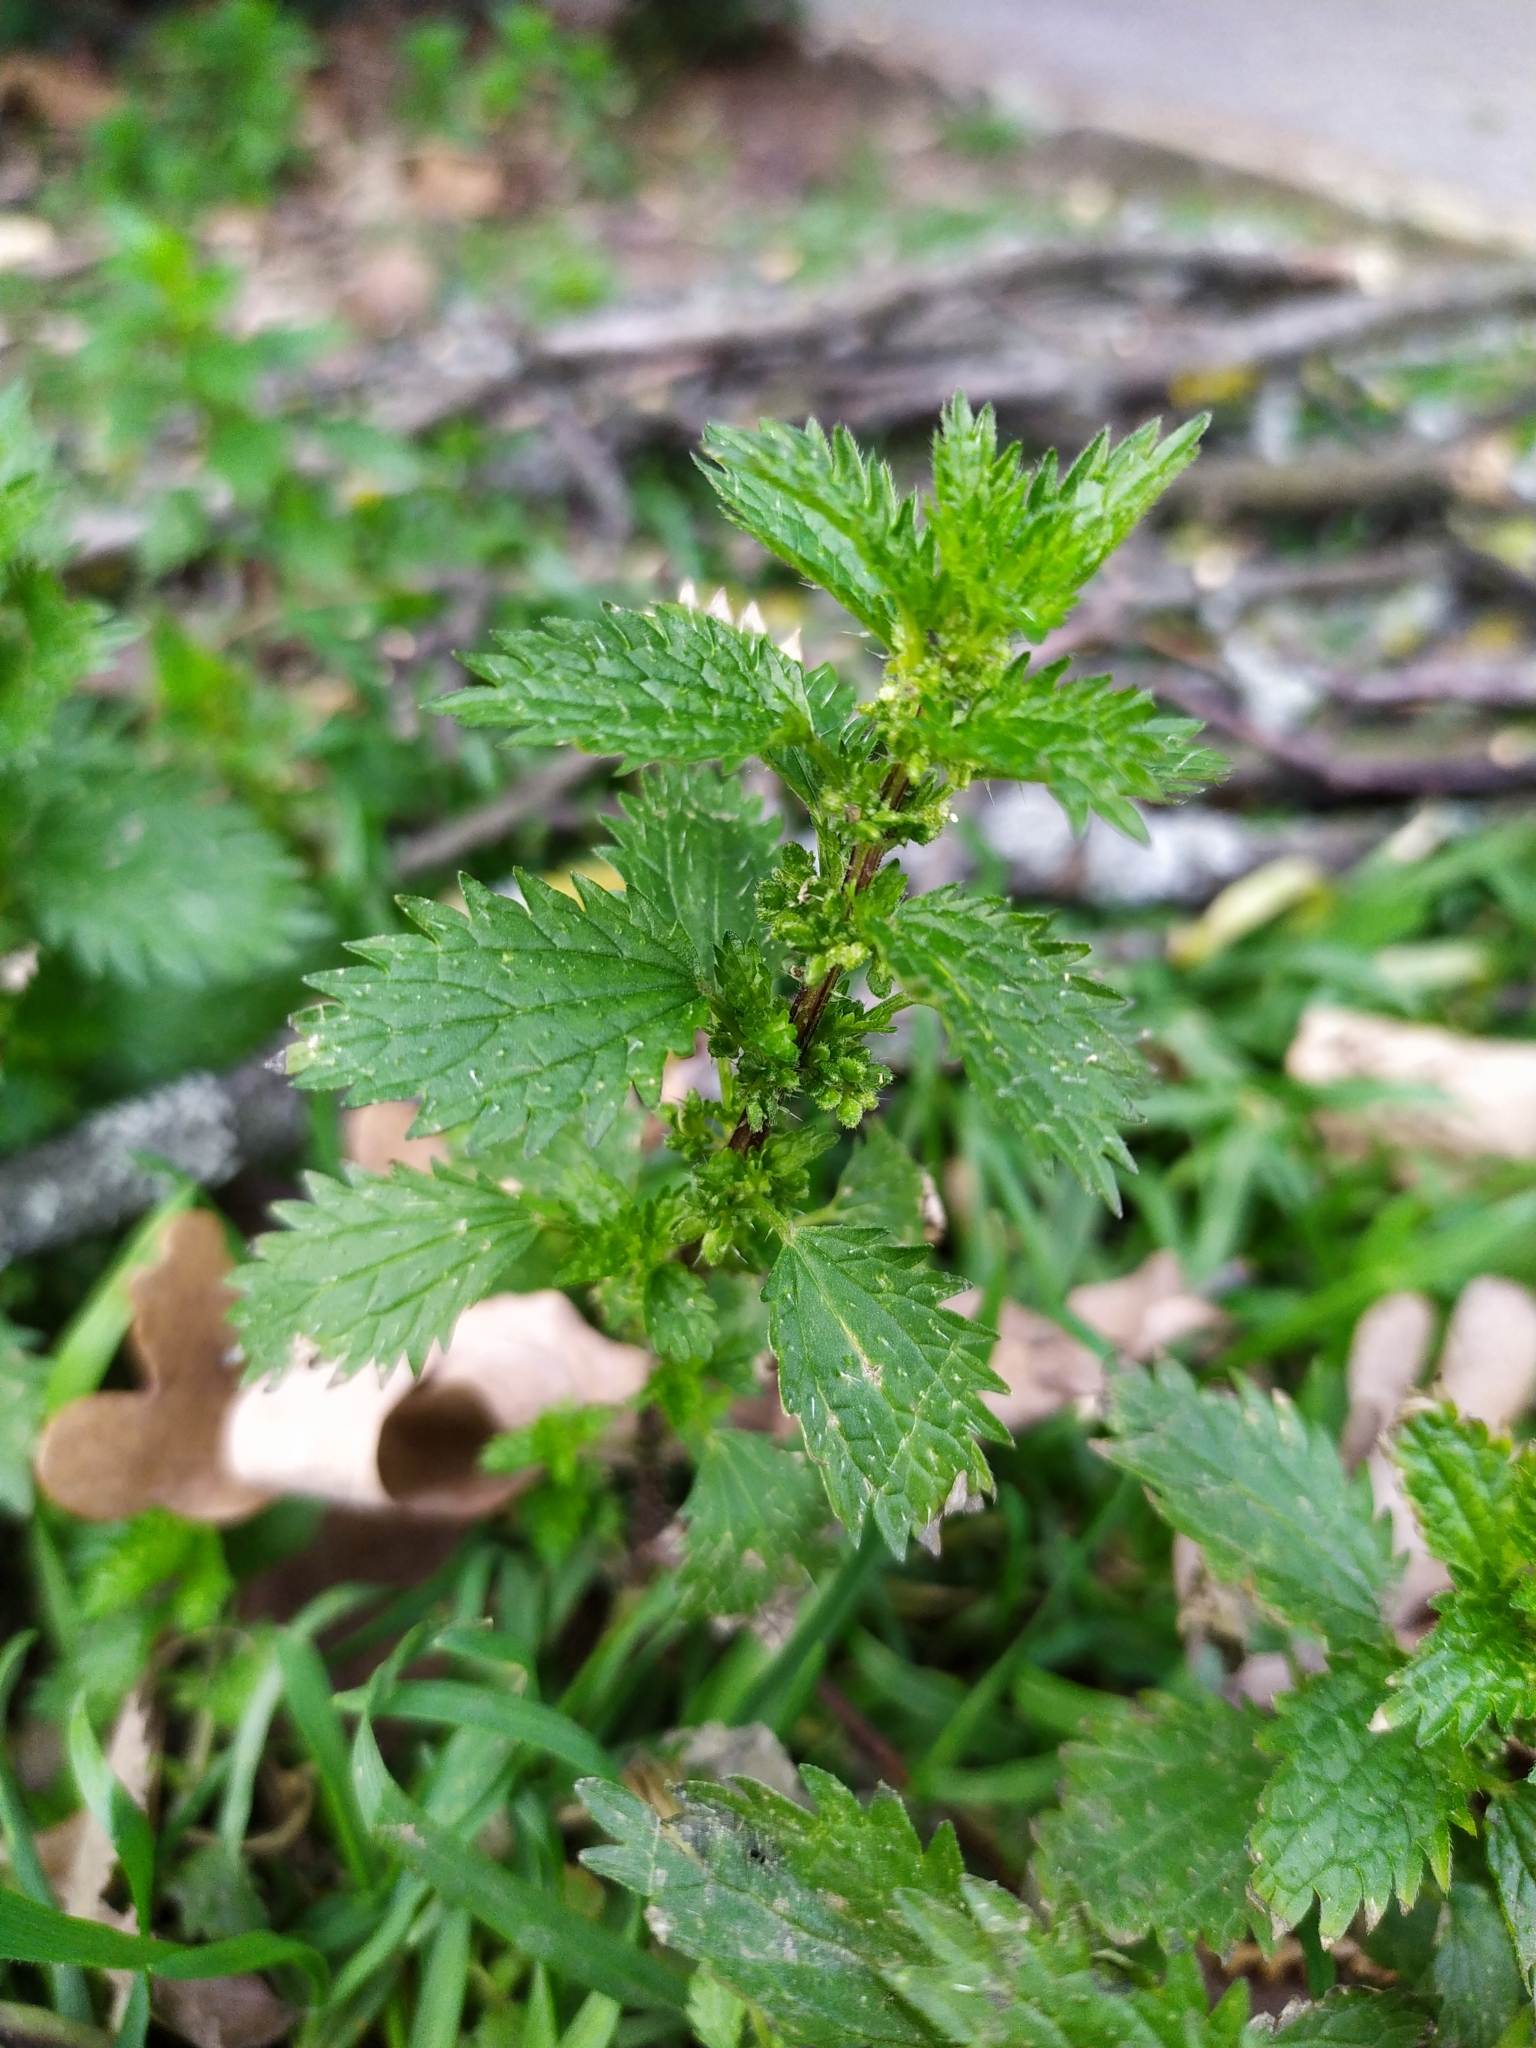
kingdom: Plantae
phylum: Tracheophyta
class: Magnoliopsida
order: Rosales
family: Urticaceae
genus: Urtica
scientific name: Urtica urens
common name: Dwarf nettle
